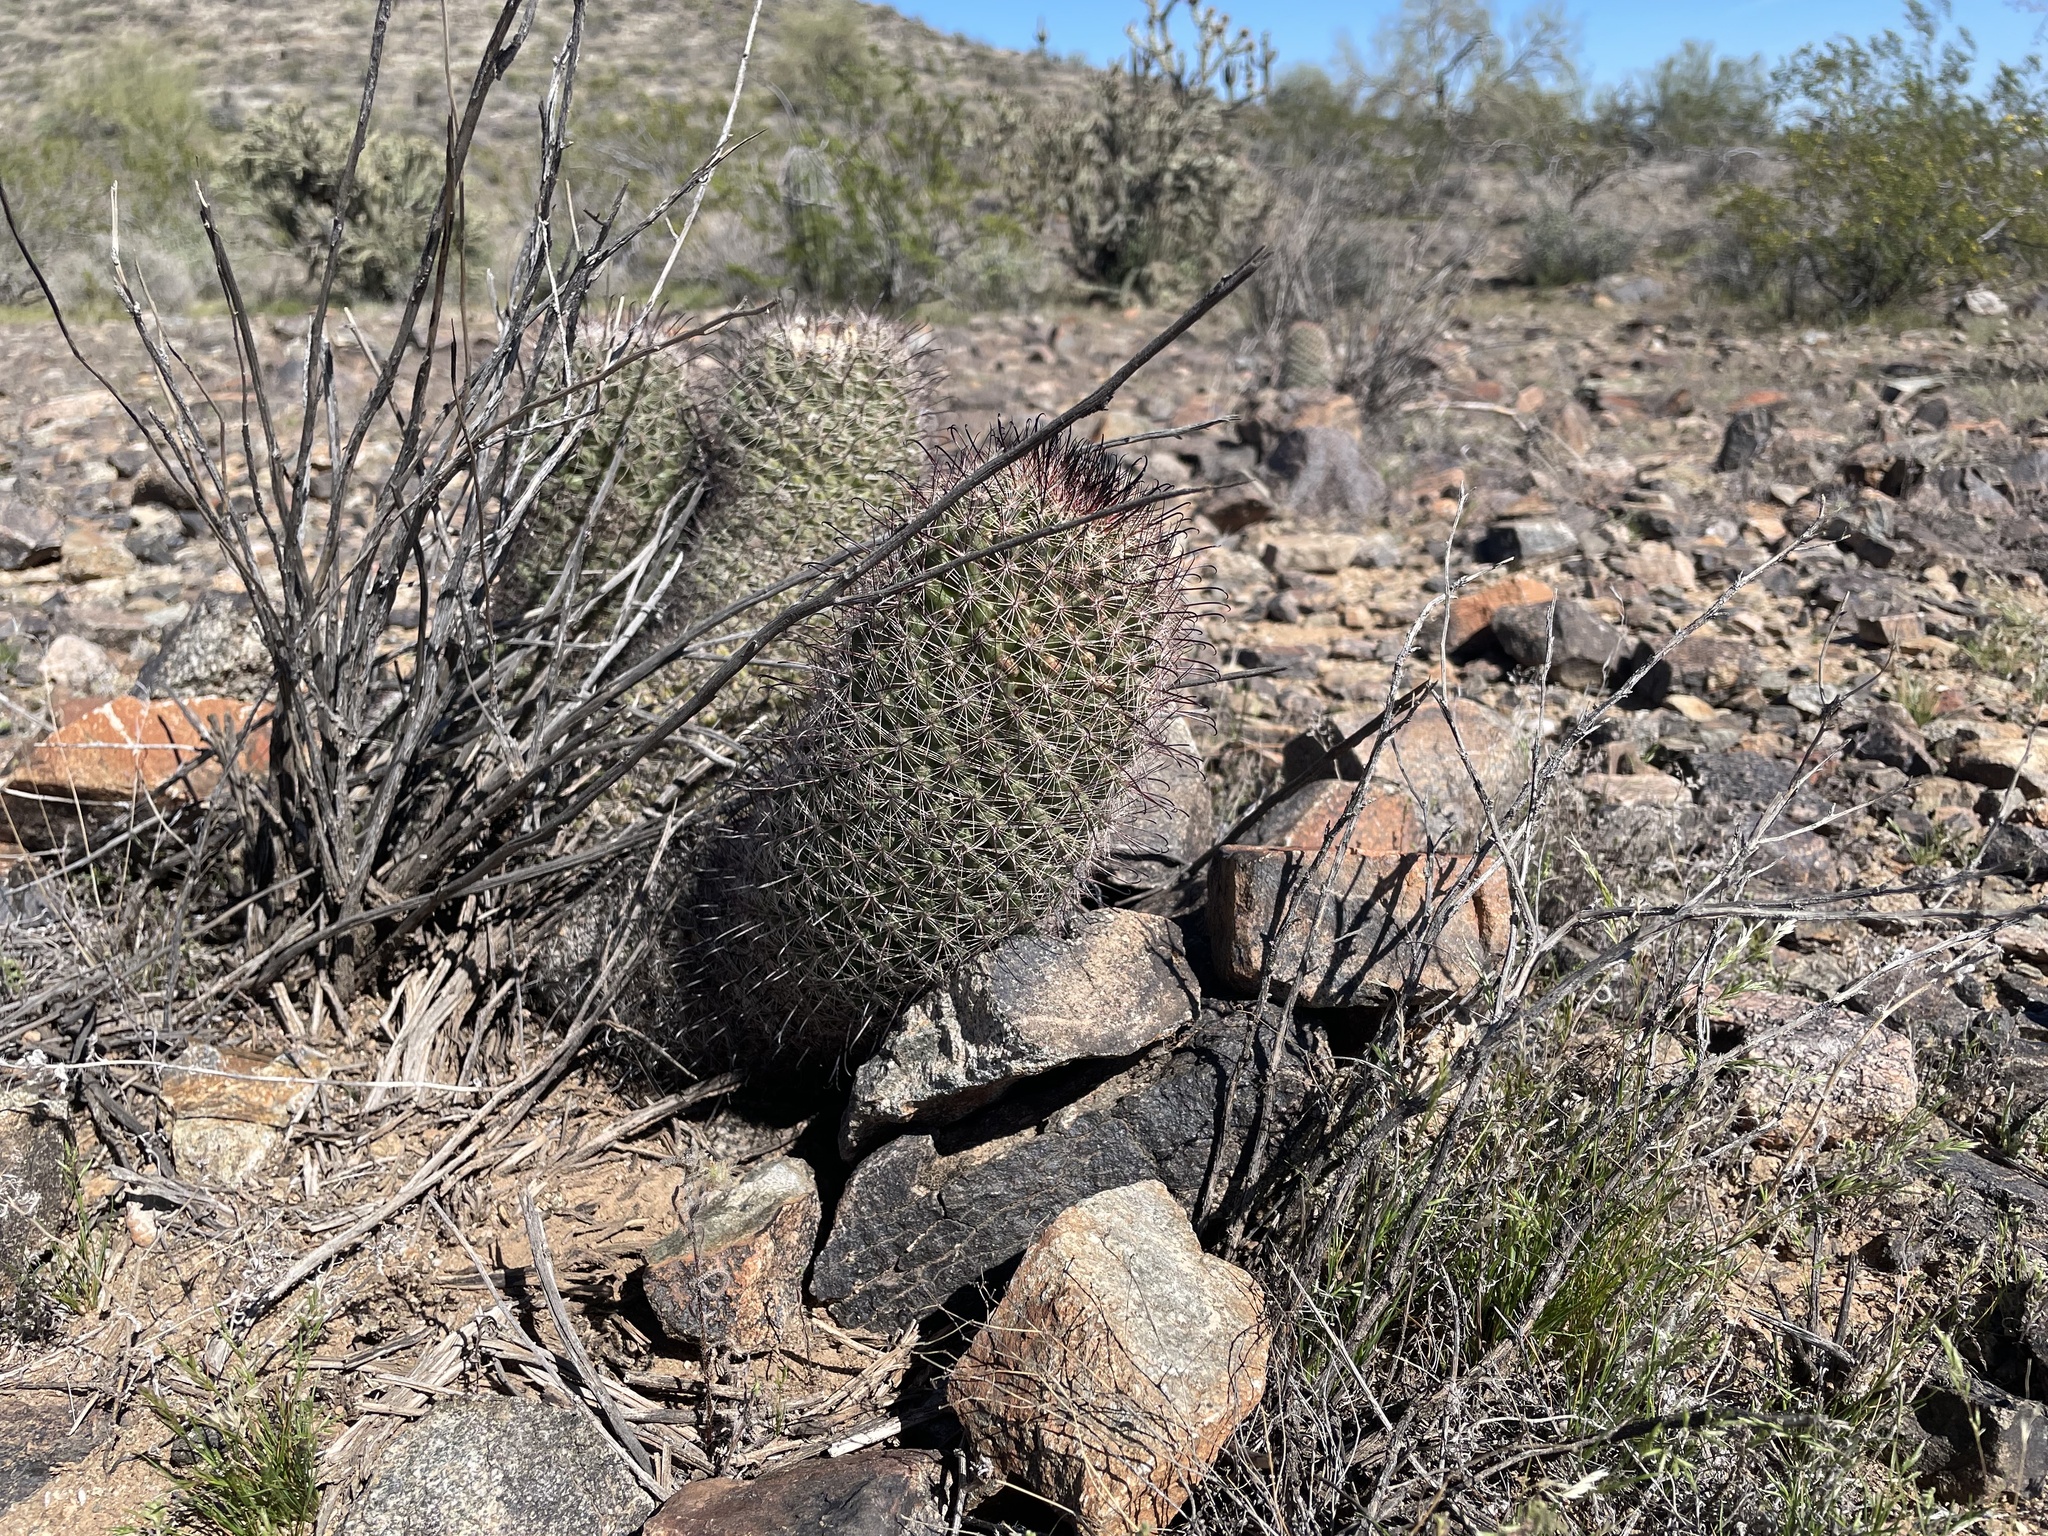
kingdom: Plantae
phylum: Tracheophyta
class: Magnoliopsida
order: Caryophyllales
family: Cactaceae
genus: Cochemiea
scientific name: Cochemiea grahamii
